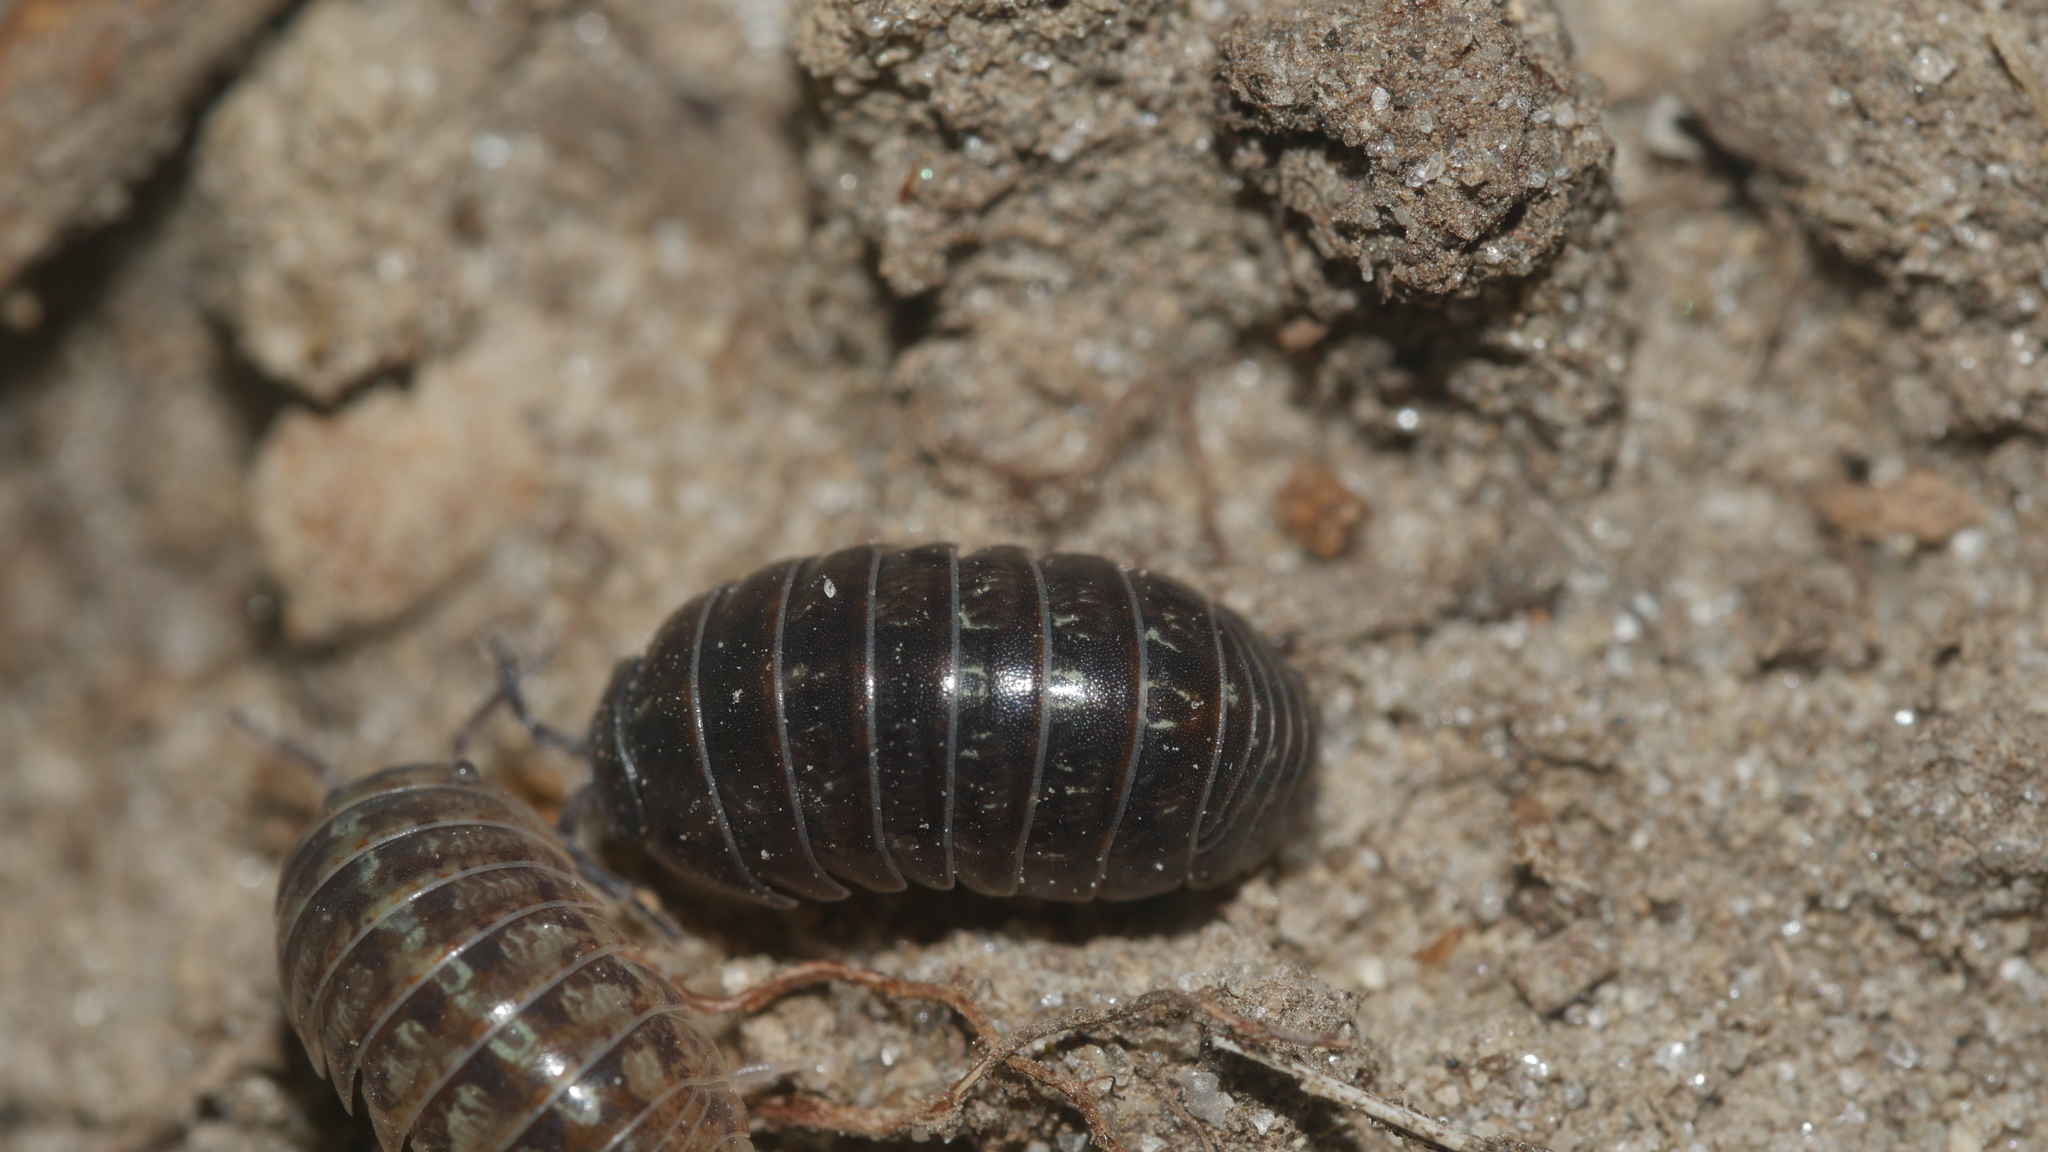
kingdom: Animalia
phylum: Arthropoda
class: Malacostraca
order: Isopoda
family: Armadillidiidae
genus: Armadillidium
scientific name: Armadillidium vulgare
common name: Common pill woodlouse
